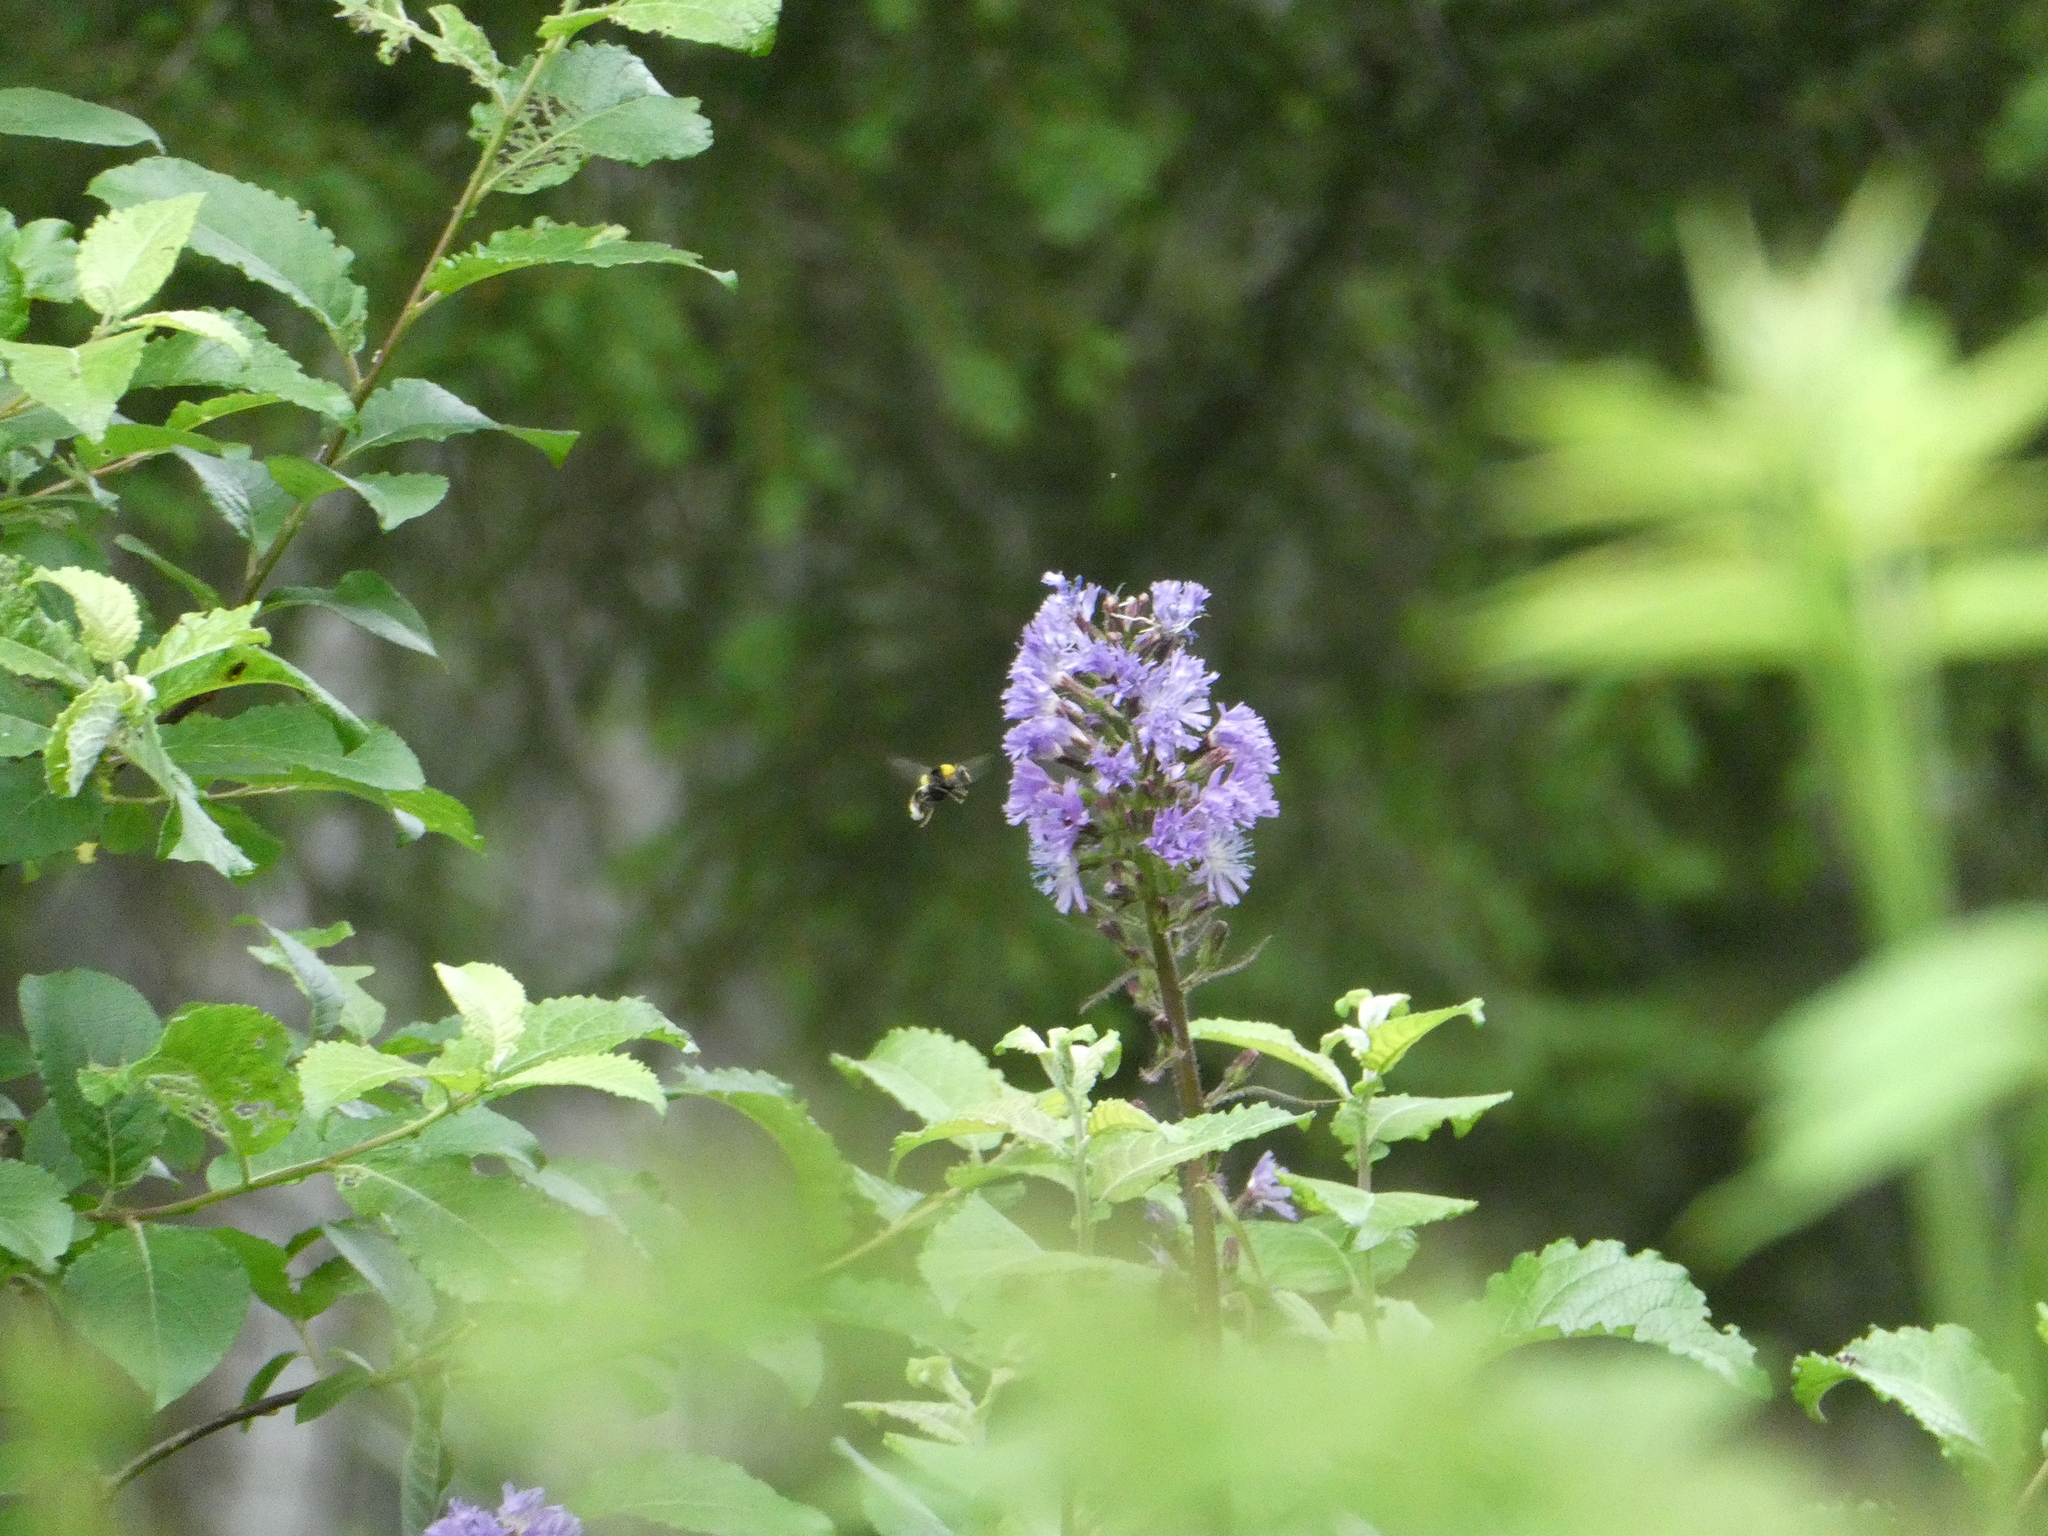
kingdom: Plantae
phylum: Tracheophyta
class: Magnoliopsida
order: Asterales
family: Asteraceae
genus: Cicerbita
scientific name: Cicerbita alpina
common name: Alpine blue-sow-thistle
